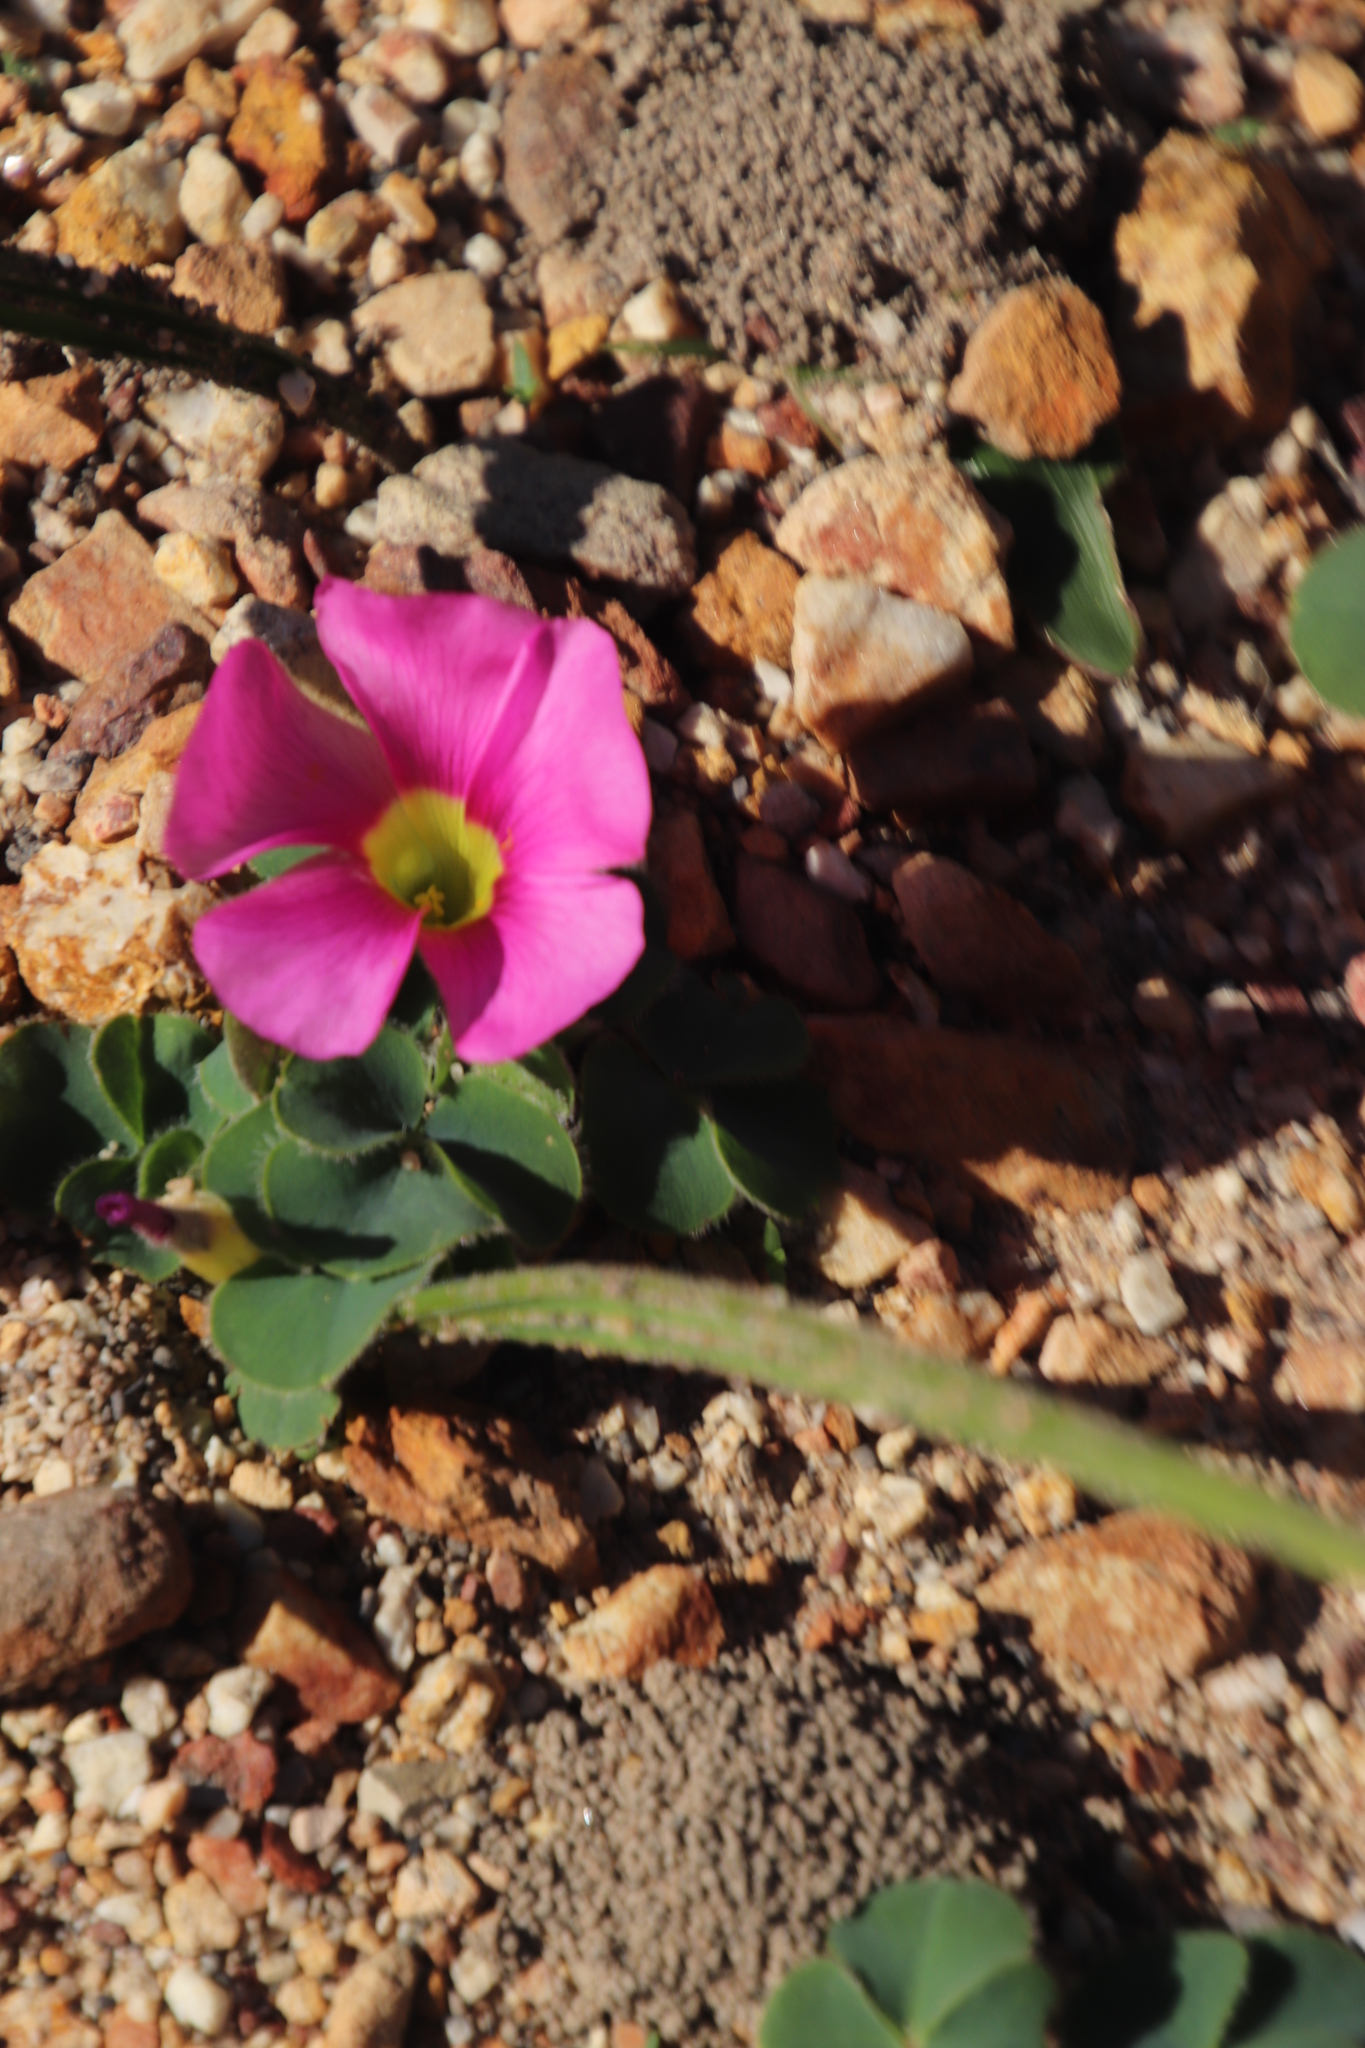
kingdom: Plantae
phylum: Tracheophyta
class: Magnoliopsida
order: Oxalidales
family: Oxalidaceae
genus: Oxalis
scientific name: Oxalis purpurea
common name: Purple woodsorrel
